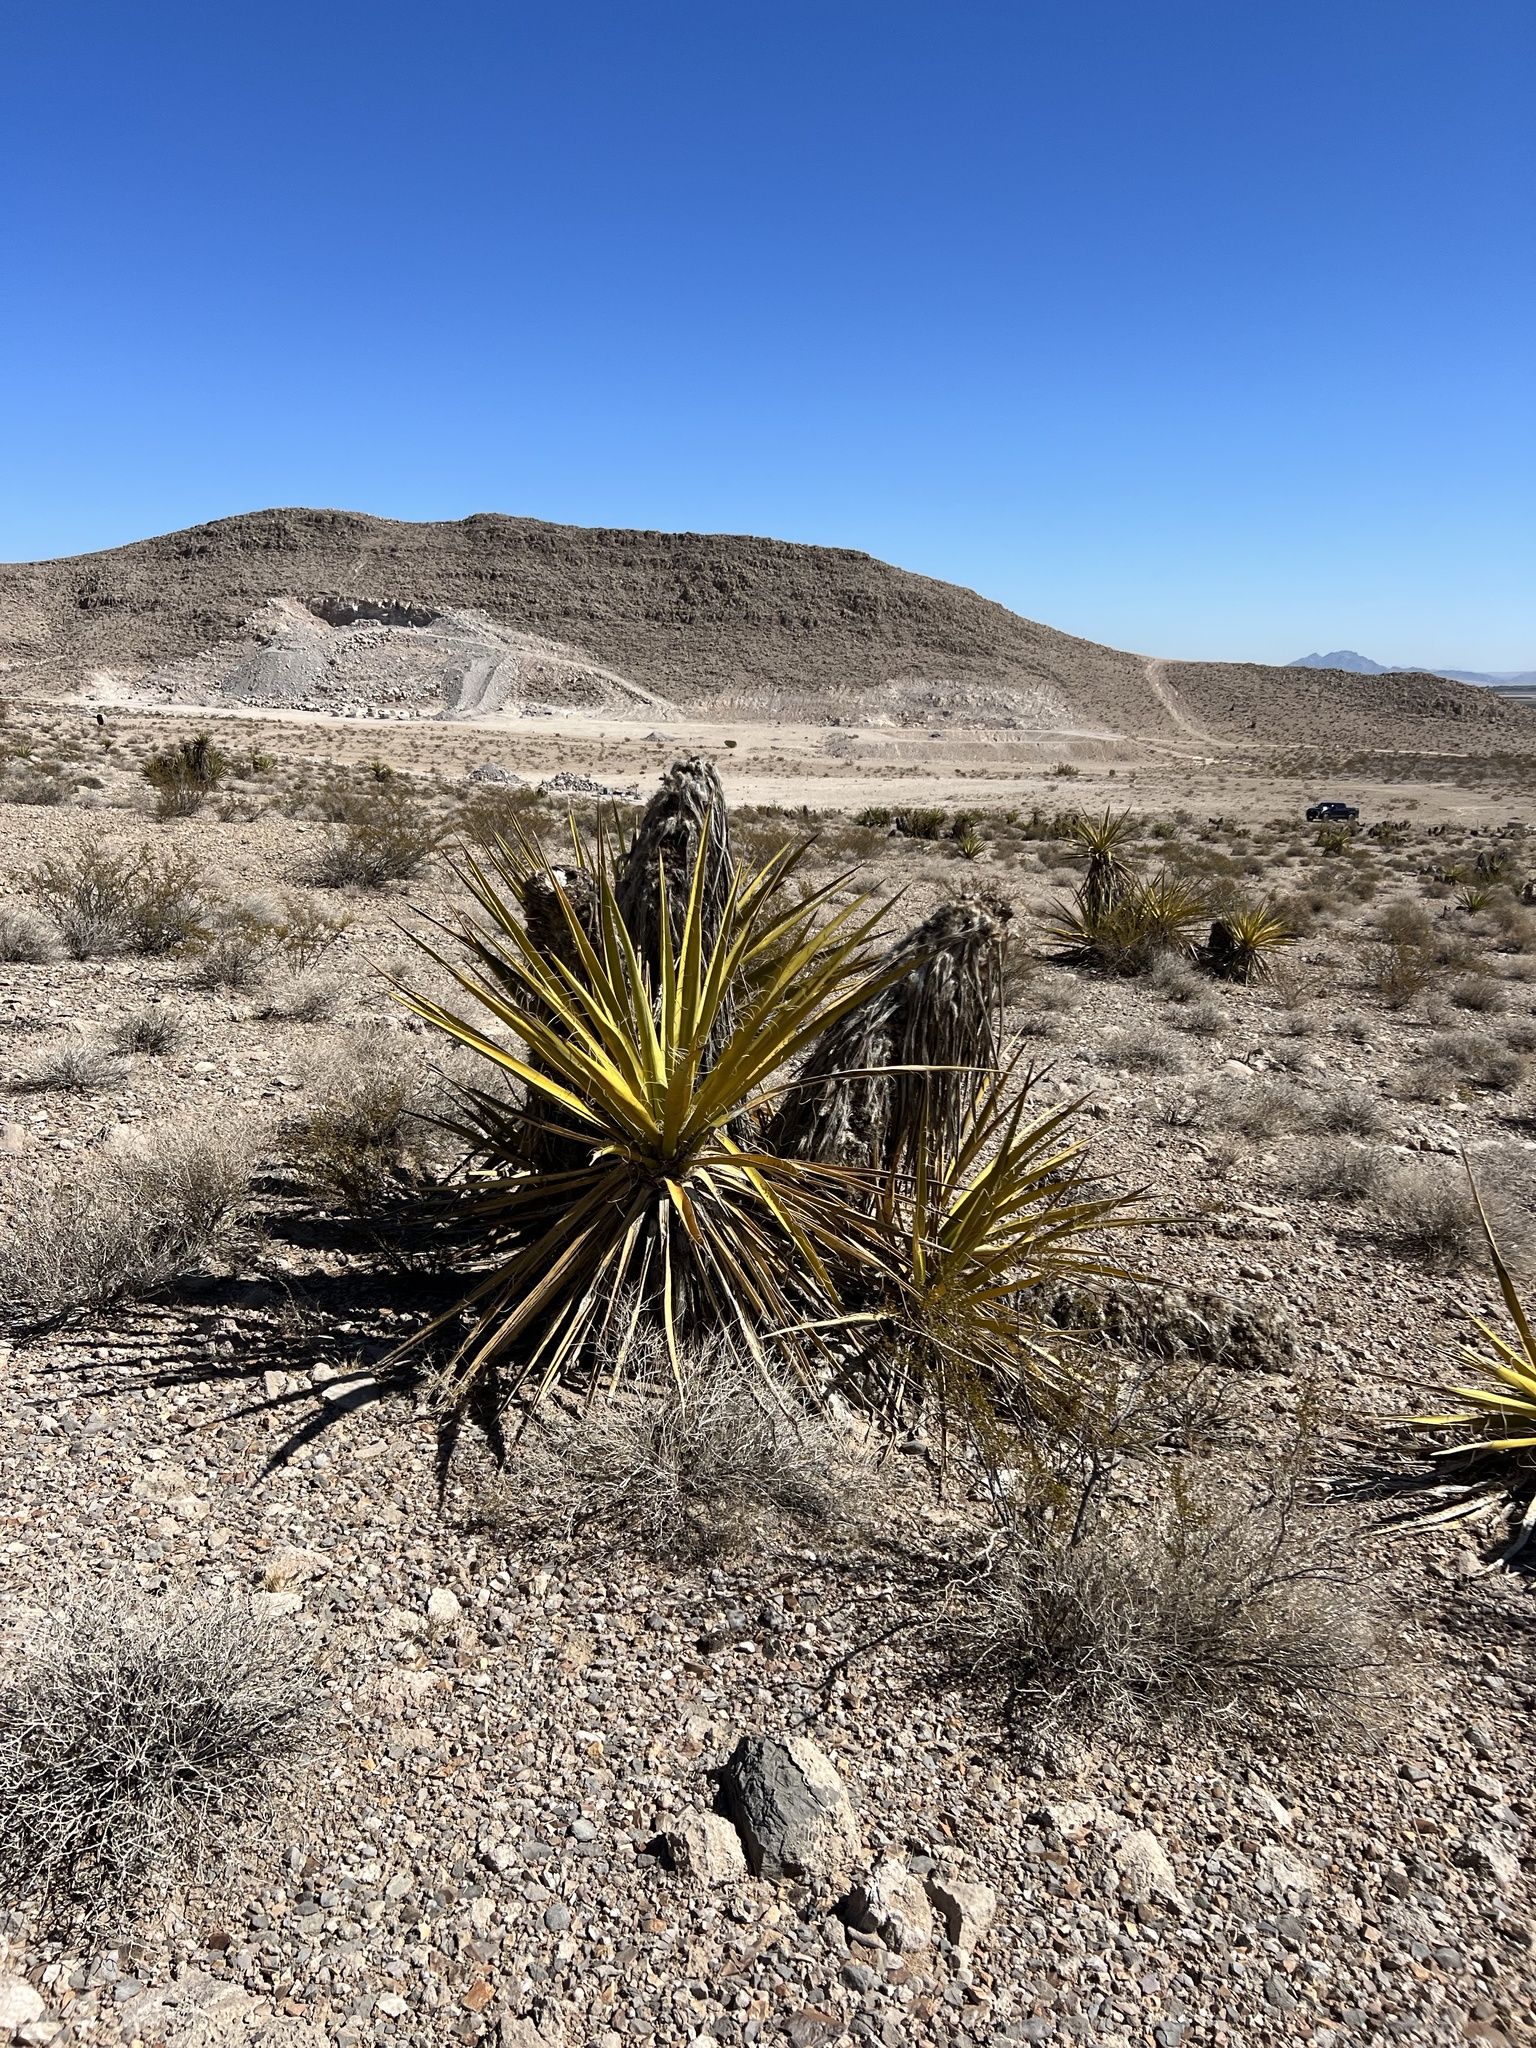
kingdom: Plantae
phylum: Tracheophyta
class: Liliopsida
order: Asparagales
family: Asparagaceae
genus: Yucca
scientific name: Yucca schidigera
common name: Mojave yucca
